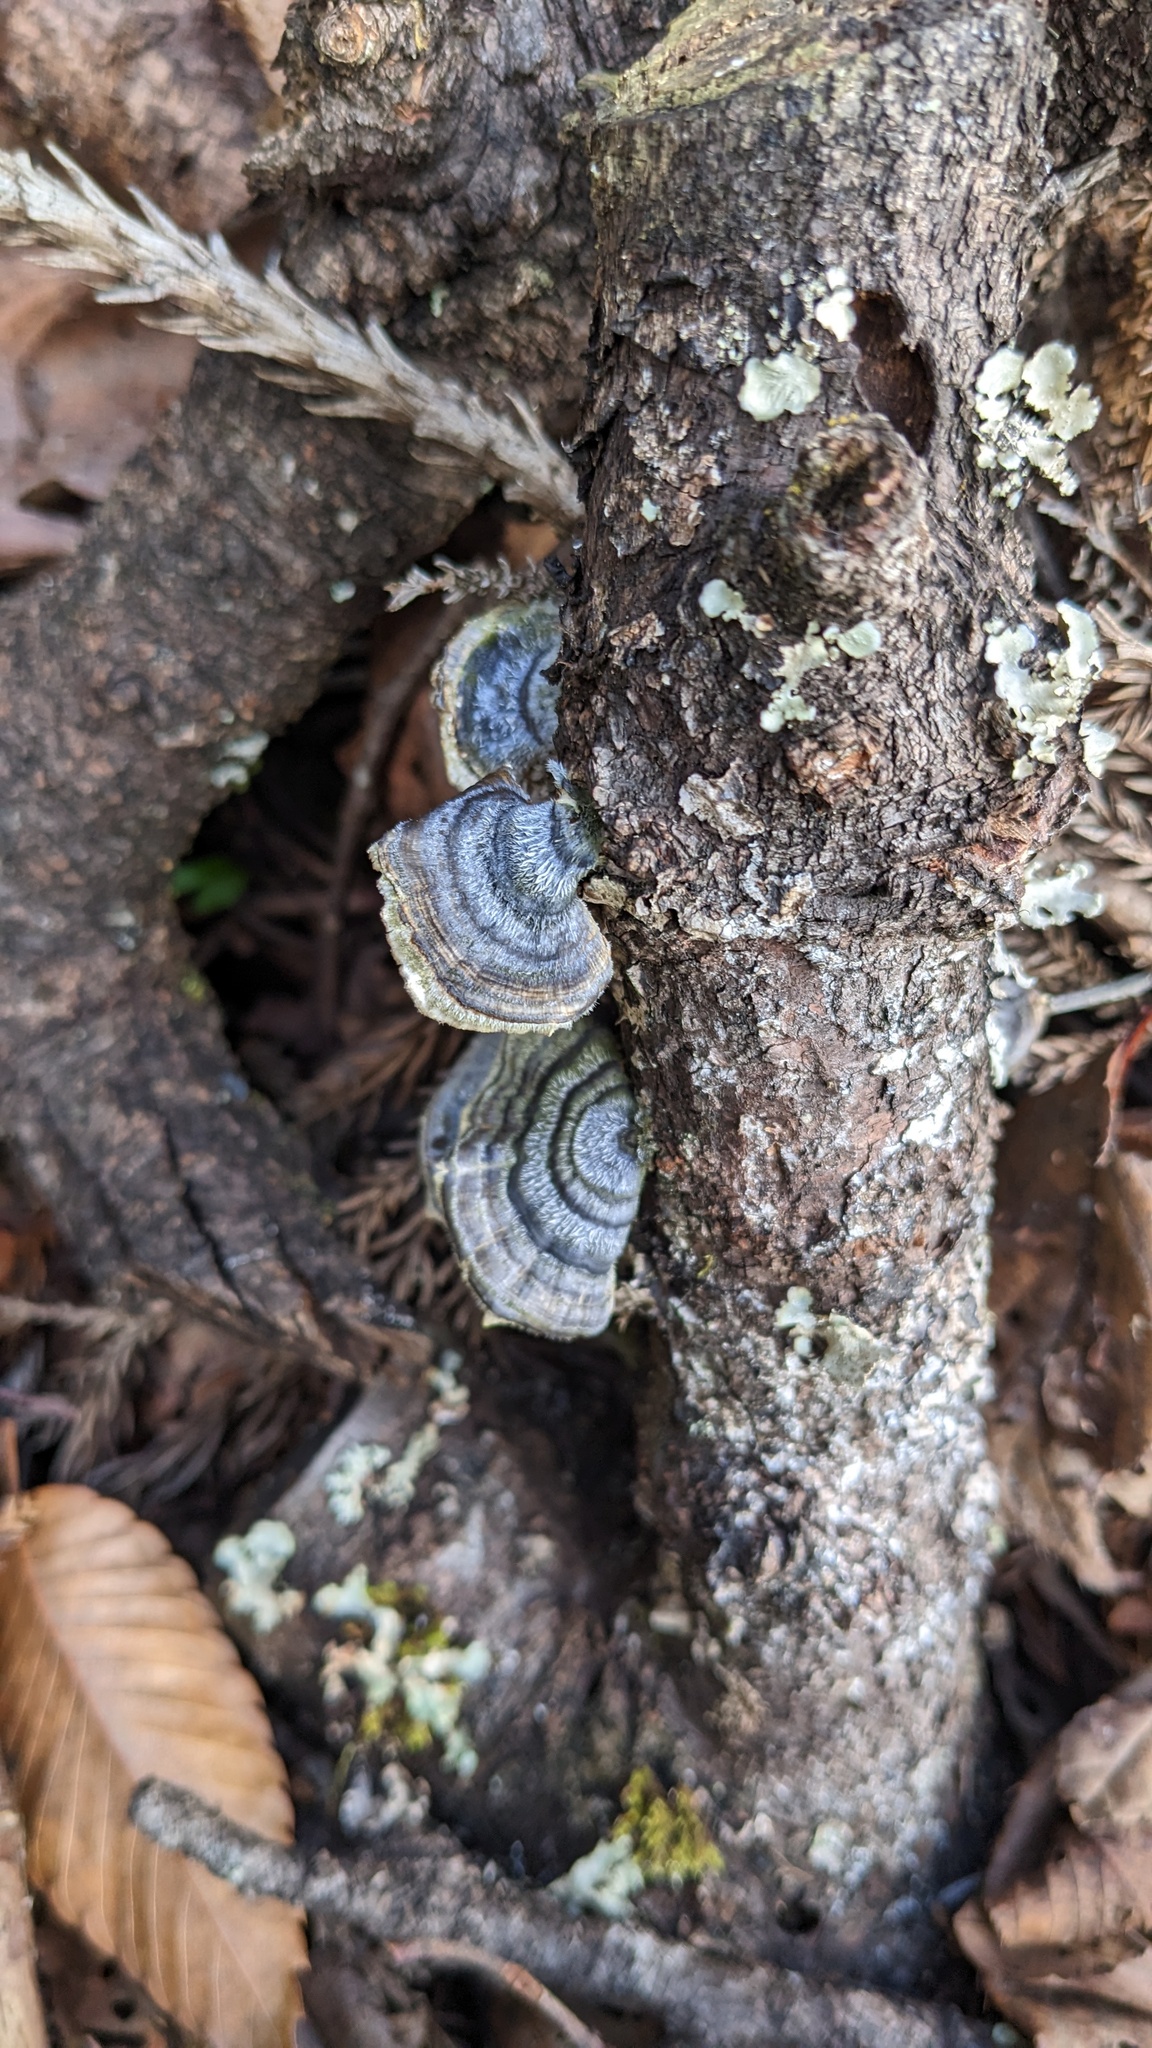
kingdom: Fungi
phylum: Basidiomycota
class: Agaricomycetes
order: Polyporales
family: Polyporaceae
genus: Trametes
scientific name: Trametes versicolor
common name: Turkeytail
